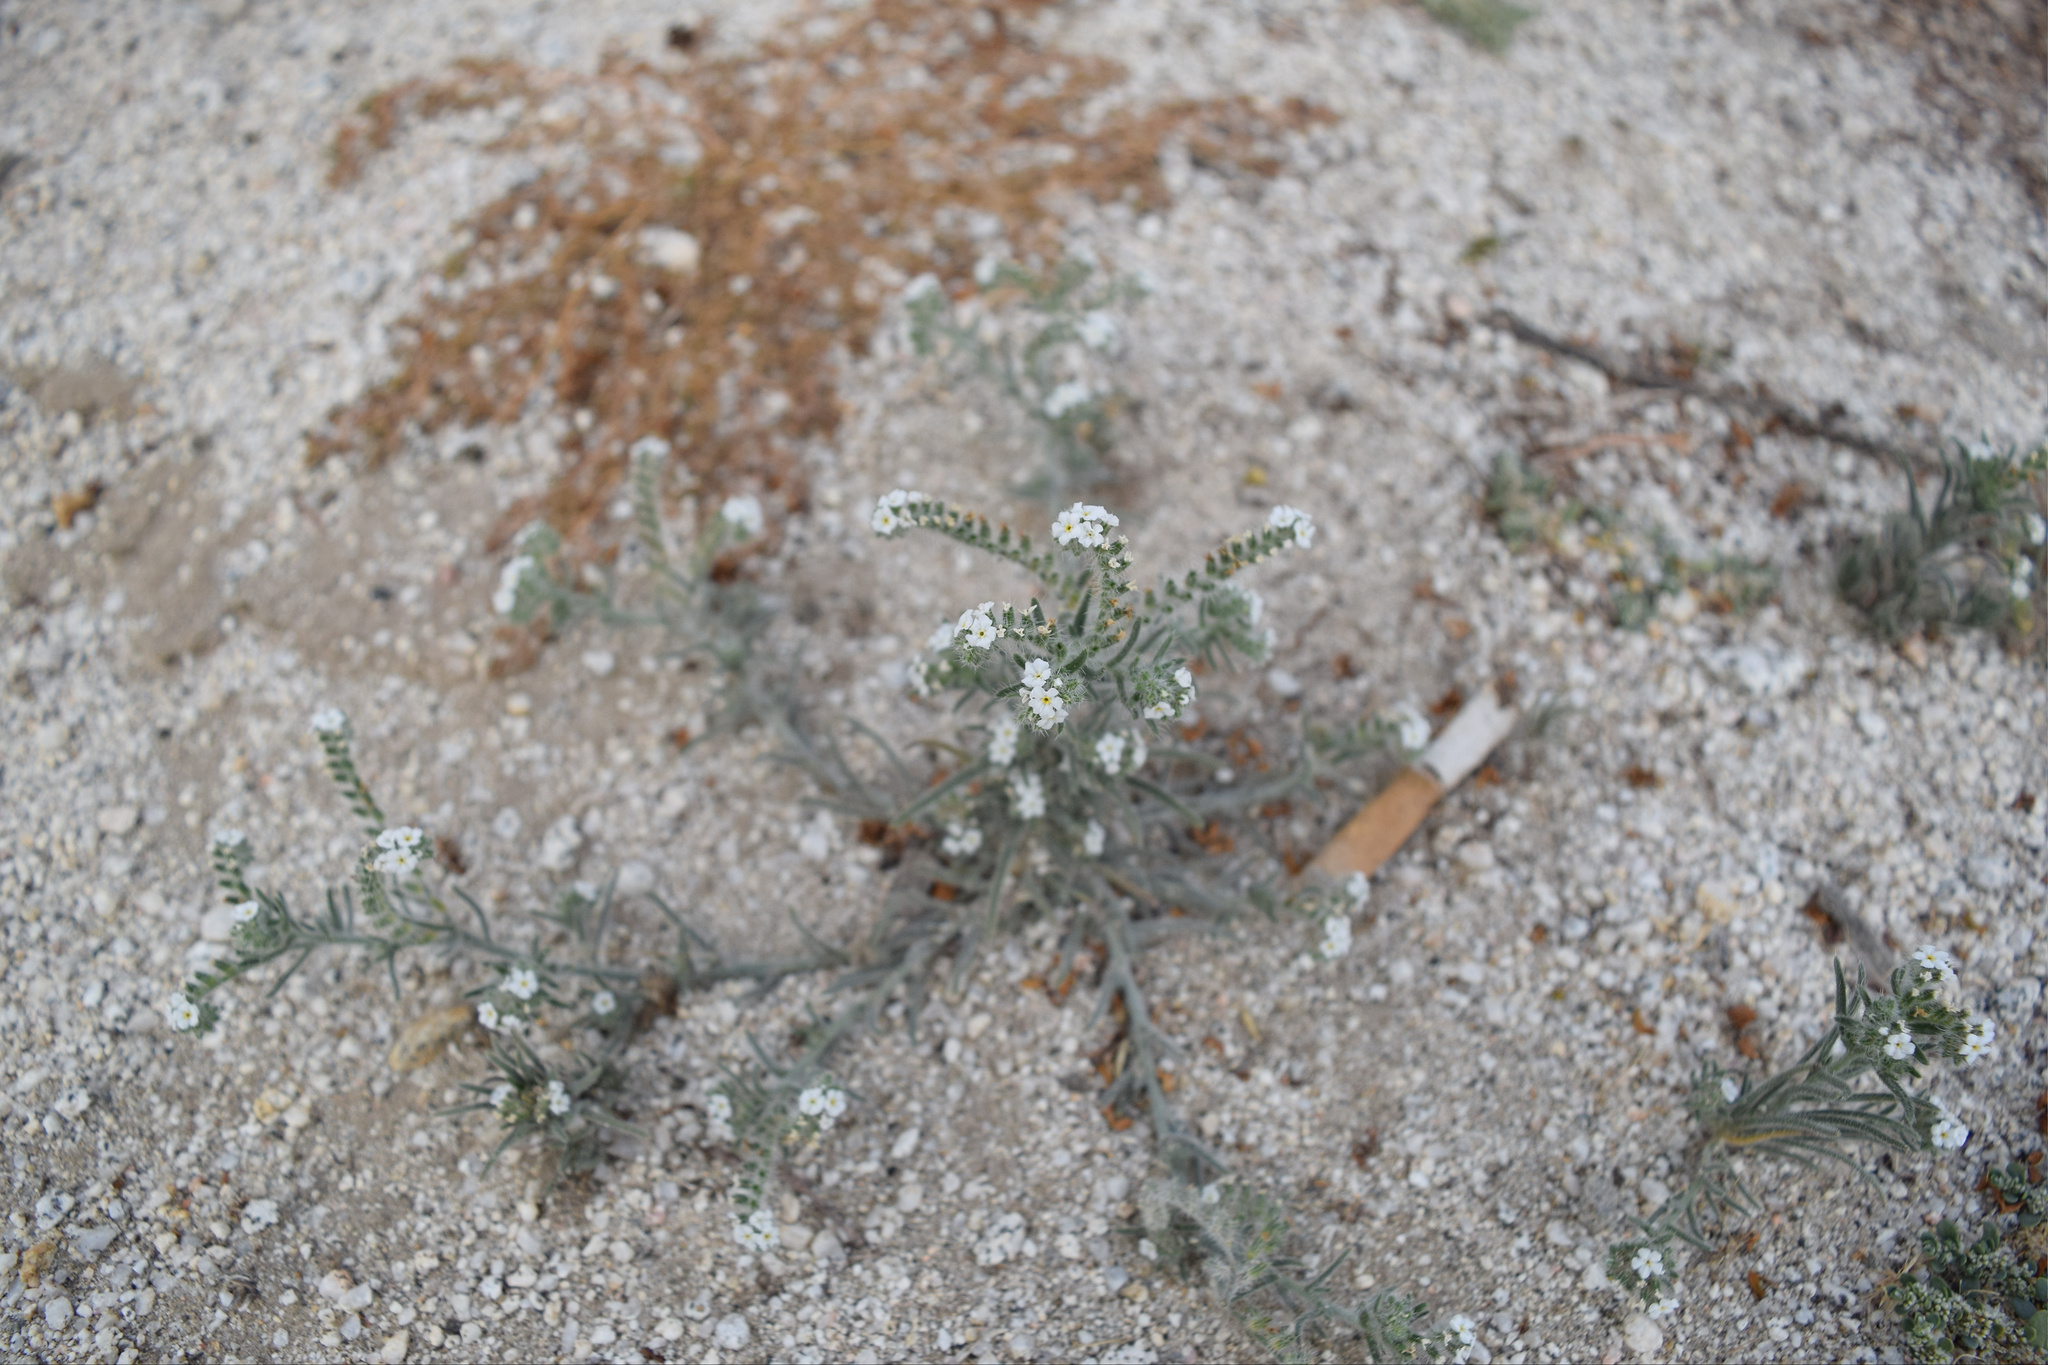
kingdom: Plantae
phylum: Tracheophyta
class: Magnoliopsida
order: Boraginales
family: Boraginaceae
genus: Johnstonella
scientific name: Johnstonella angustifolia
